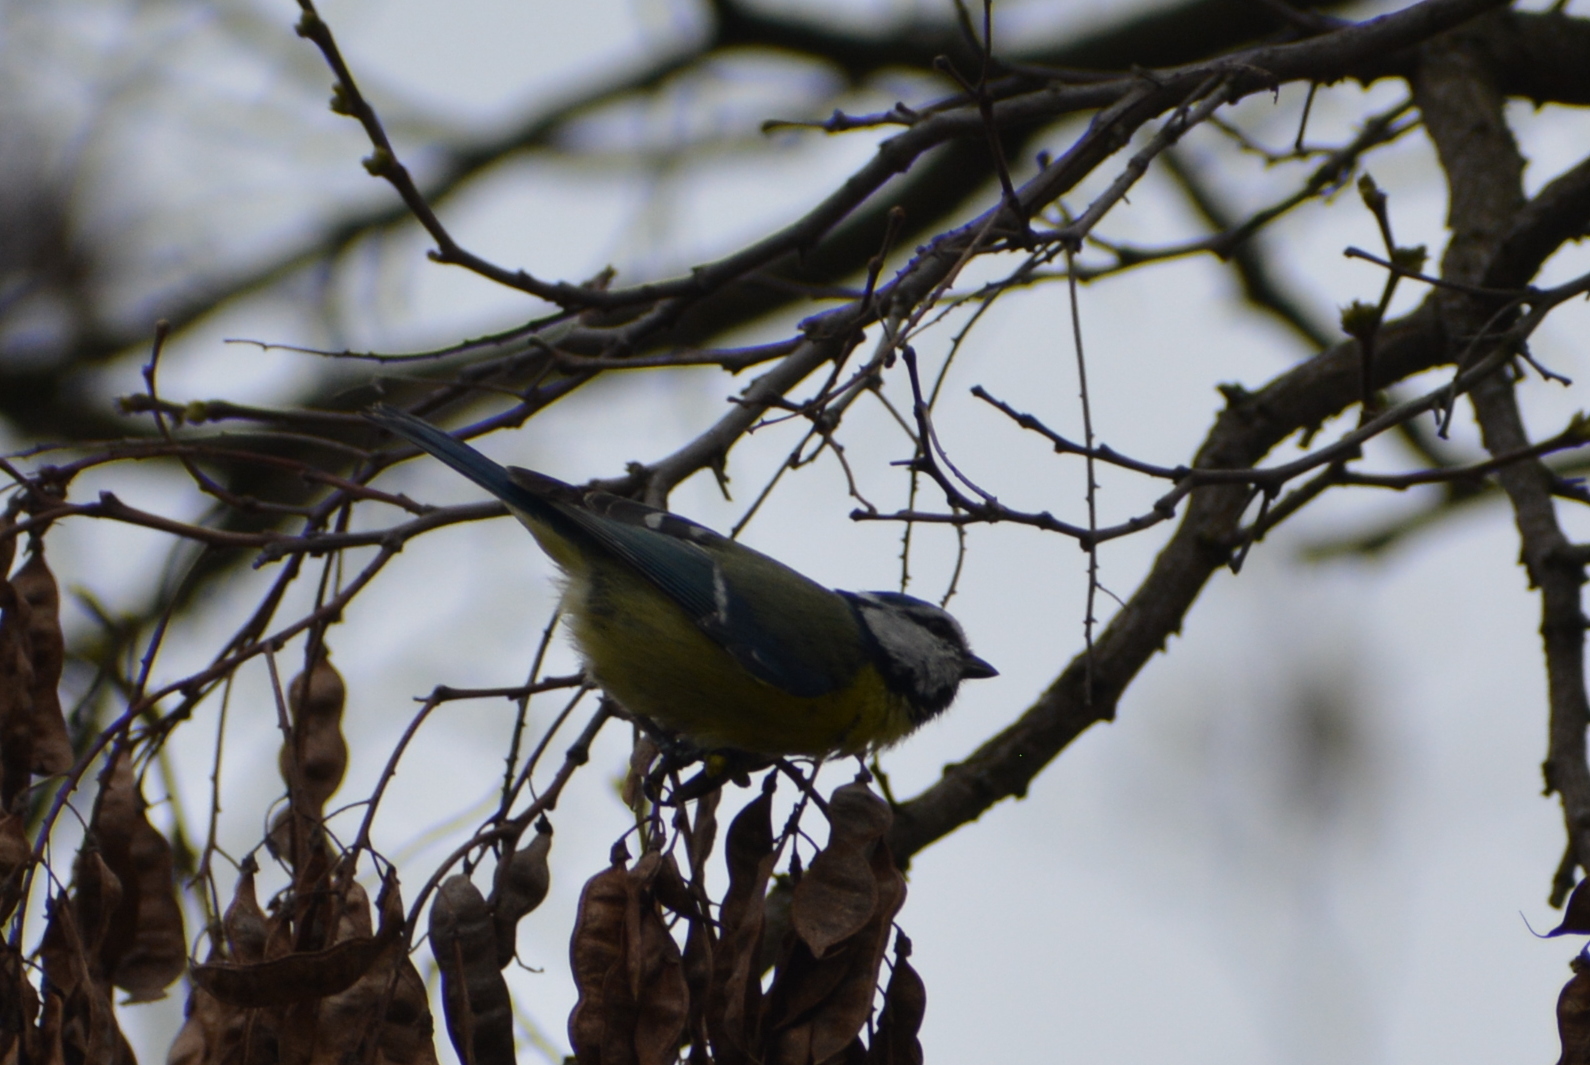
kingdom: Animalia
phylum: Chordata
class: Aves
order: Passeriformes
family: Paridae
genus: Cyanistes
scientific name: Cyanistes caeruleus
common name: Eurasian blue tit
